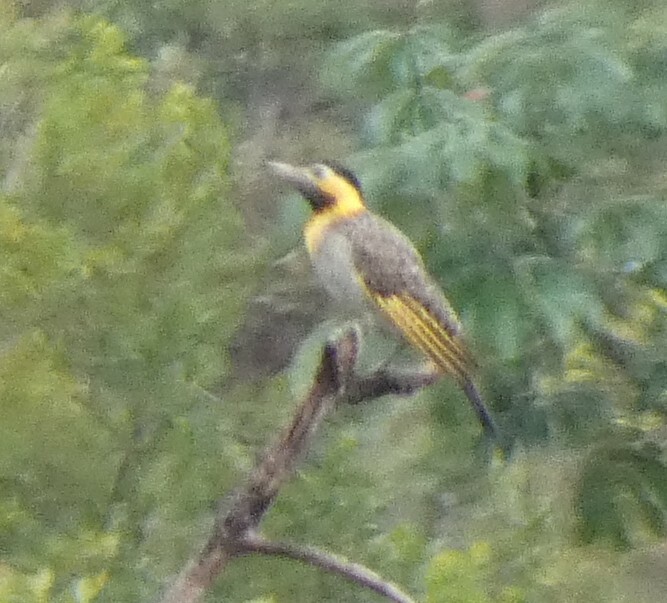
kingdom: Animalia
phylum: Chordata
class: Aves
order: Piciformes
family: Picidae
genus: Colaptes
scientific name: Colaptes campestris
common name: Campo flicker
